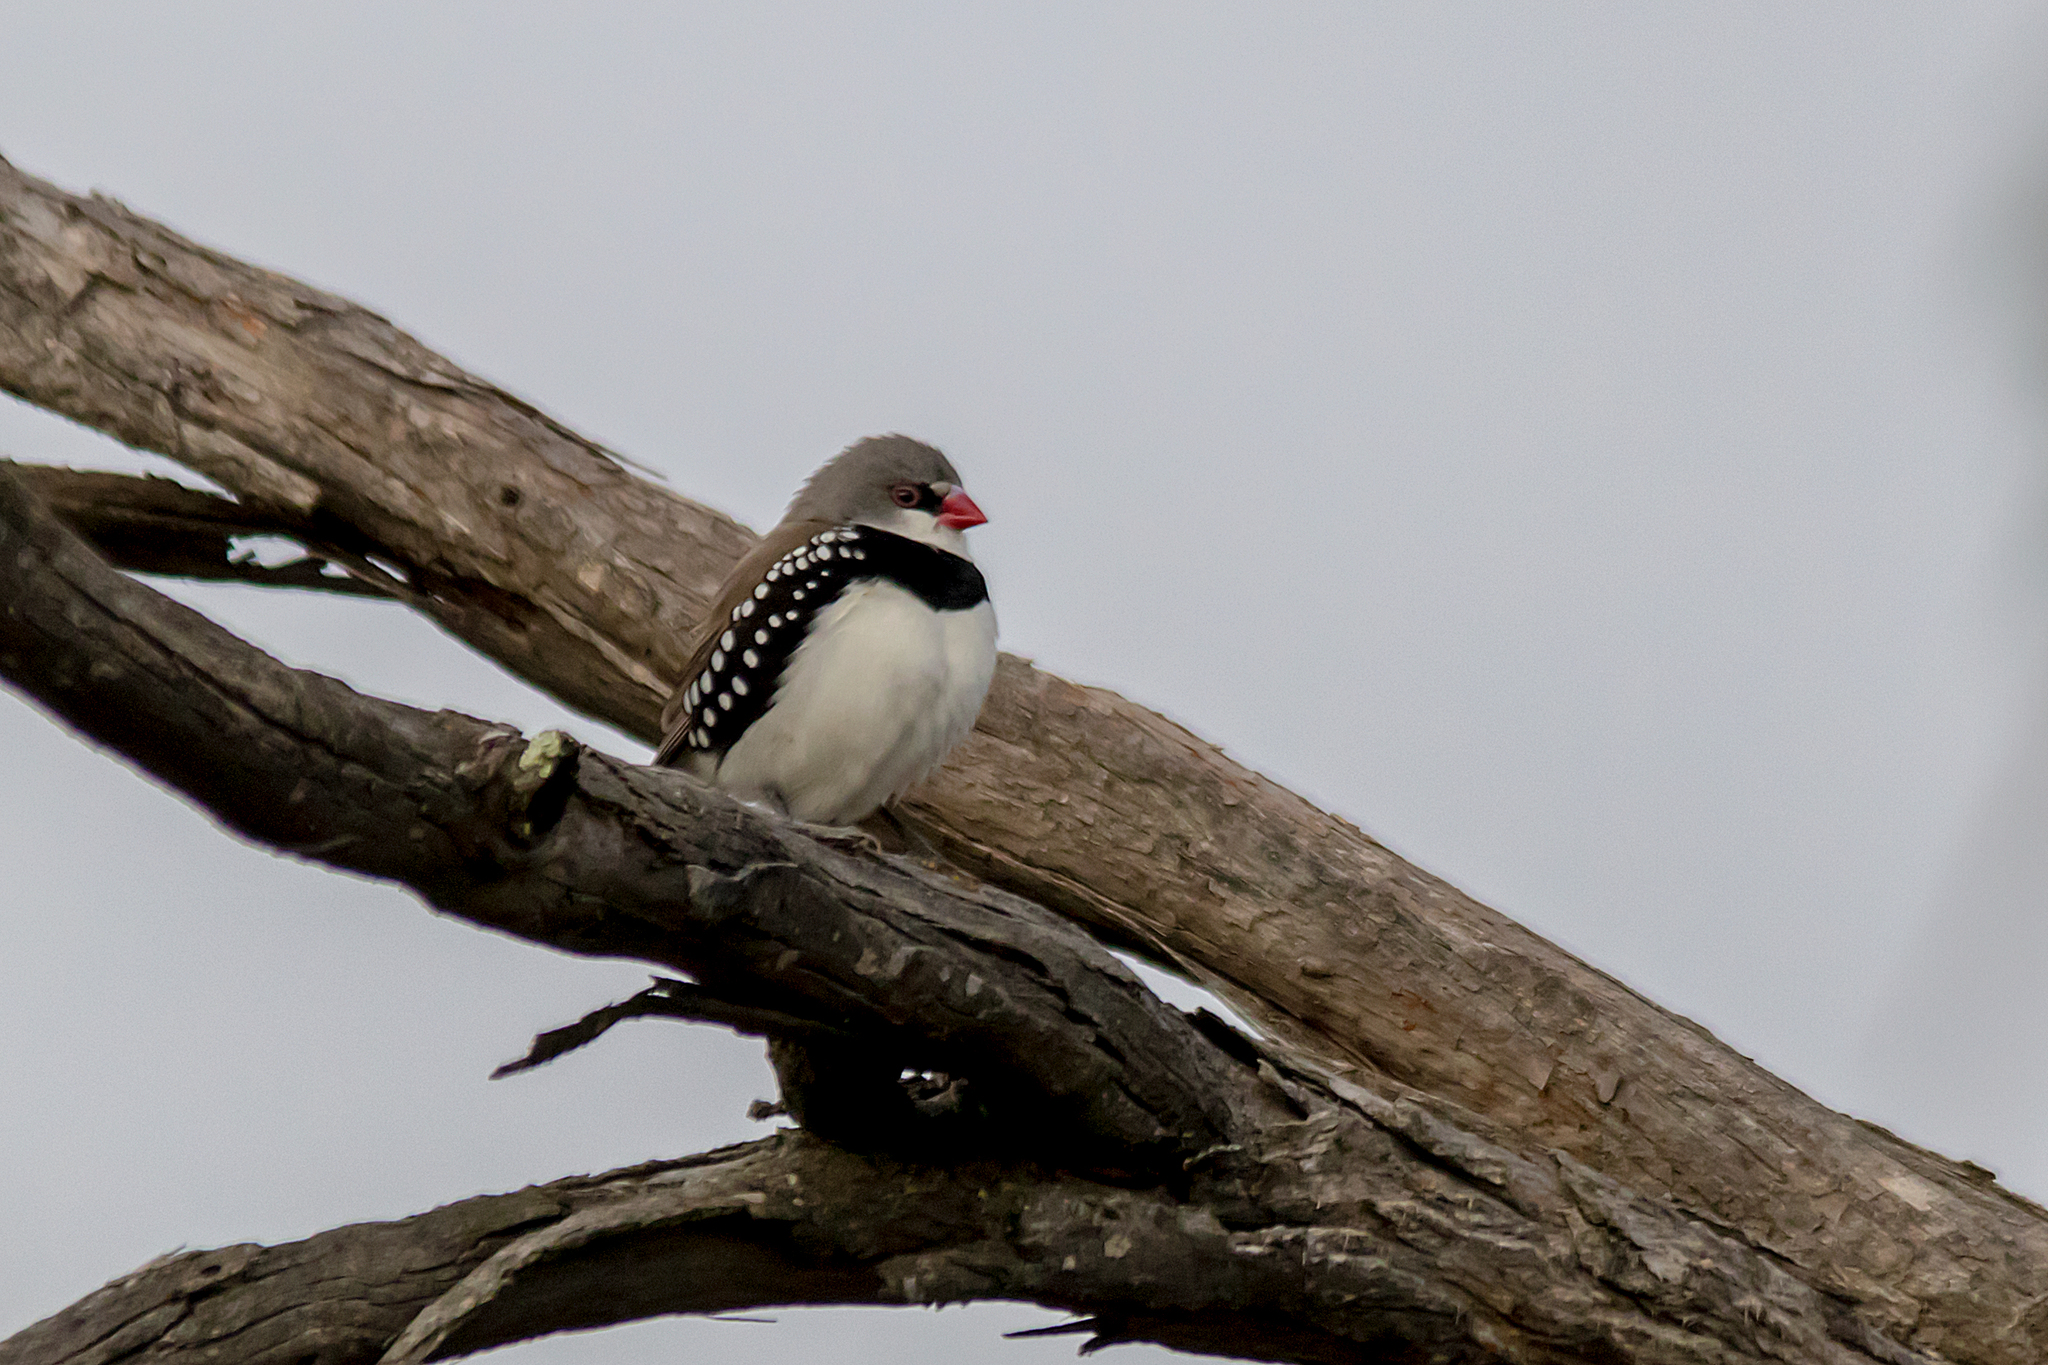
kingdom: Animalia
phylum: Chordata
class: Aves
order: Passeriformes
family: Estrildidae
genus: Stagonopleura
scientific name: Stagonopleura guttata
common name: Diamond firetail
